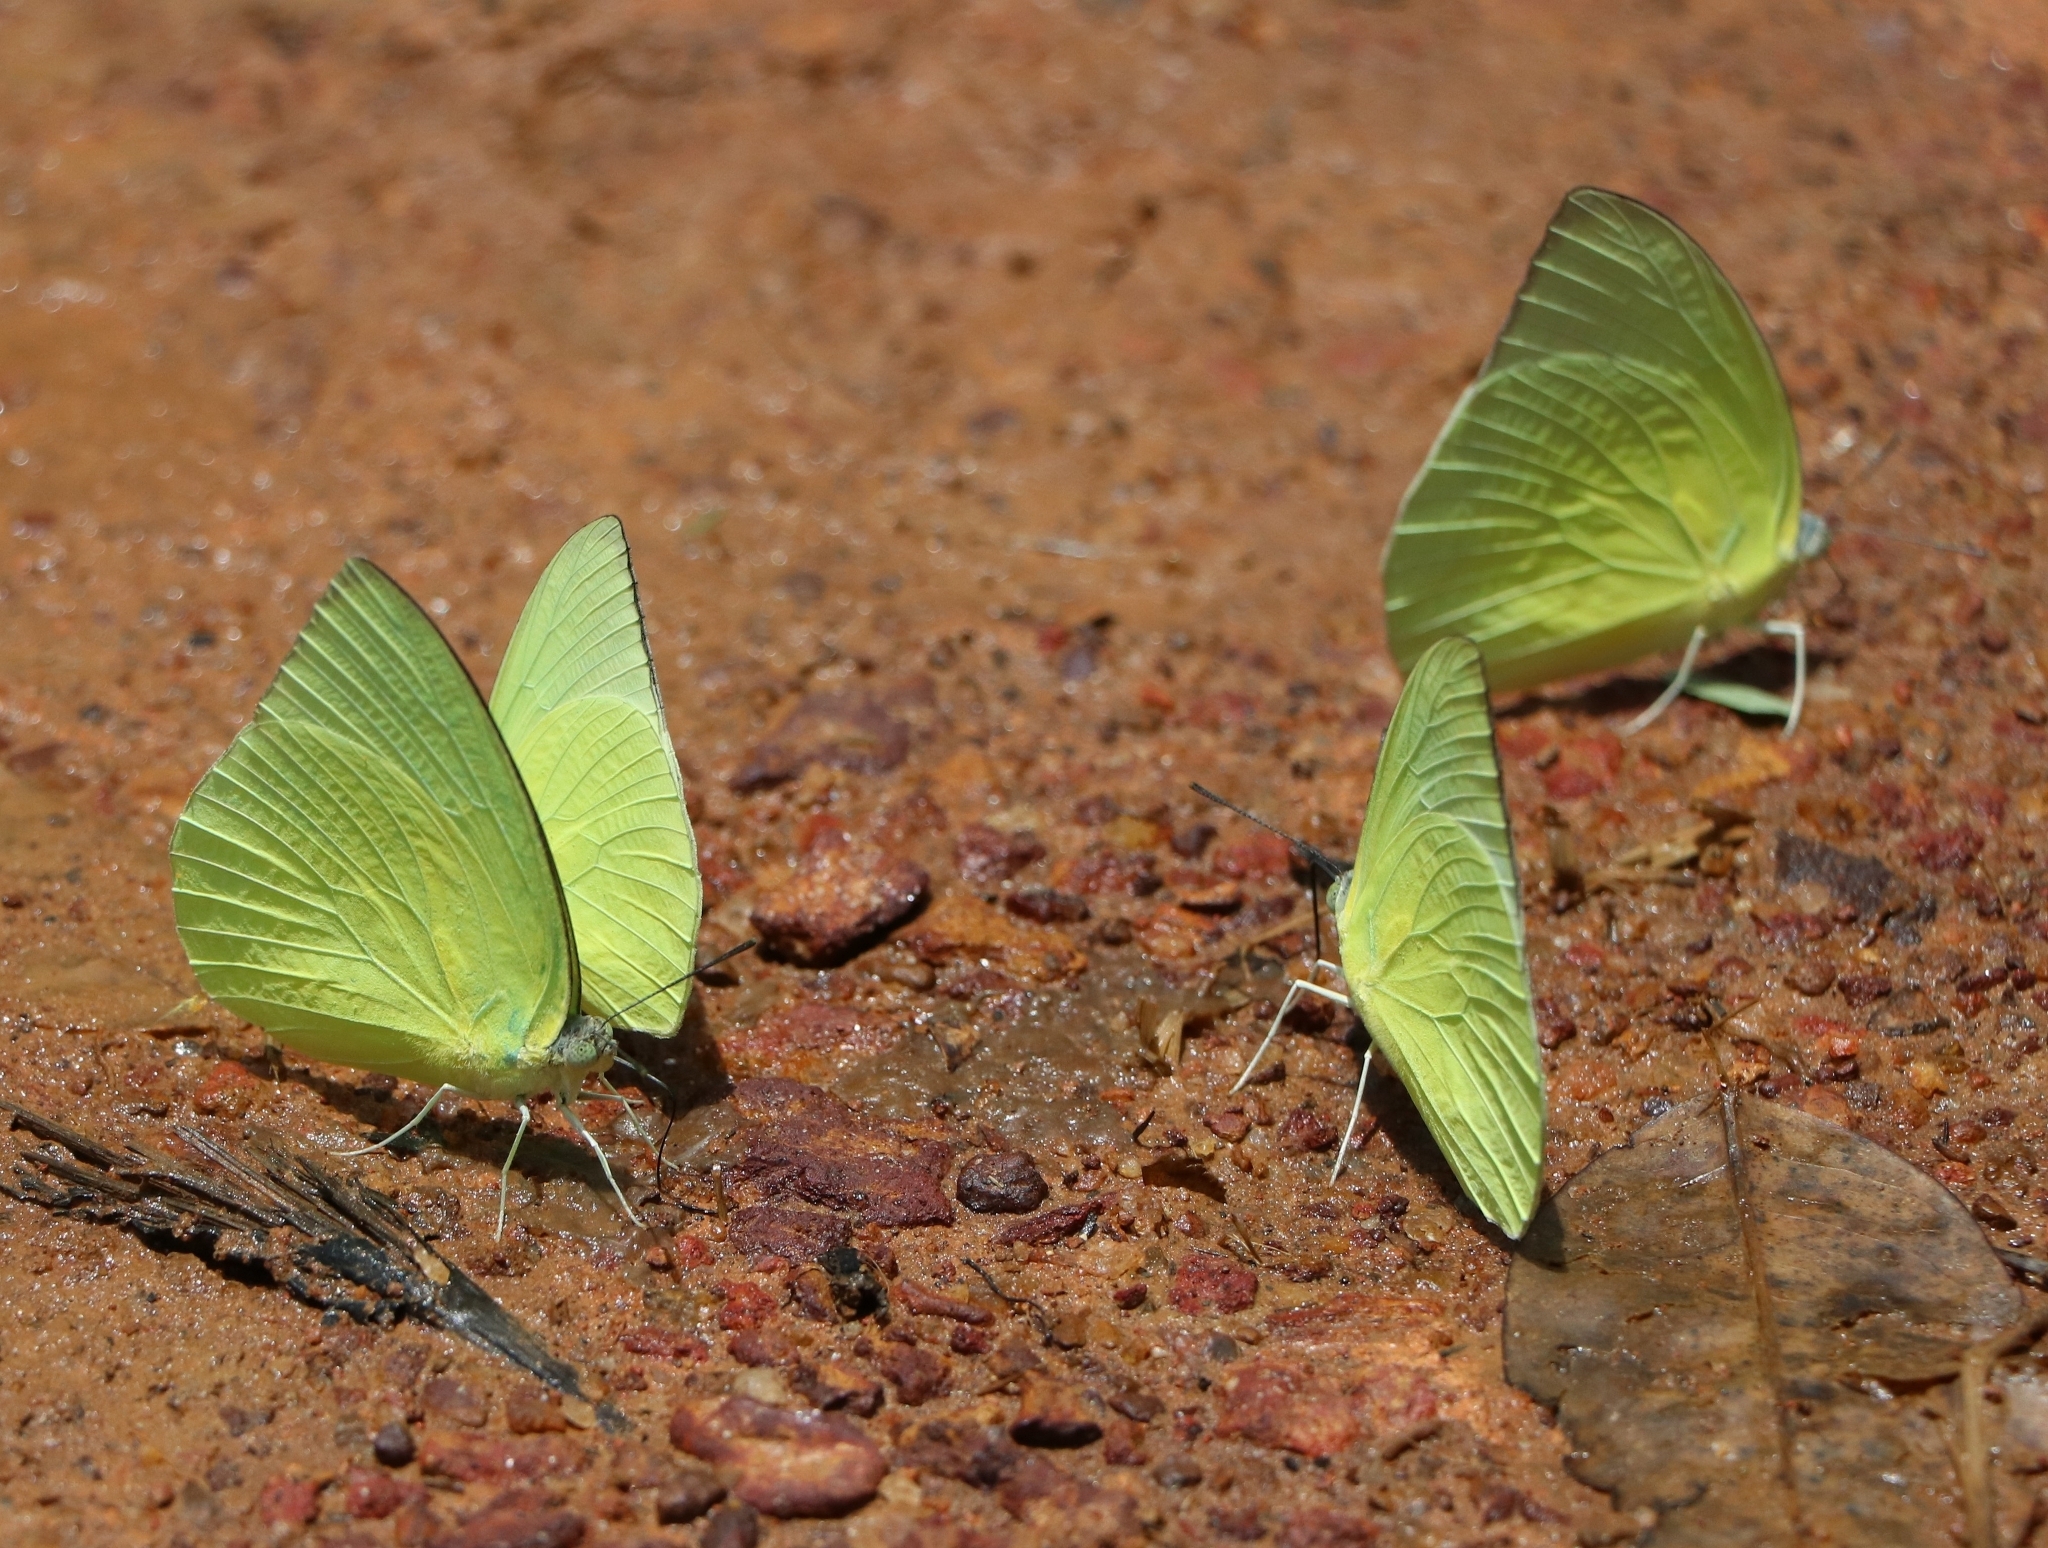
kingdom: Animalia
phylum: Arthropoda
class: Insecta
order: Lepidoptera
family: Pieridae
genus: Catopsilia
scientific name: Catopsilia pomona
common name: Common emigrant
